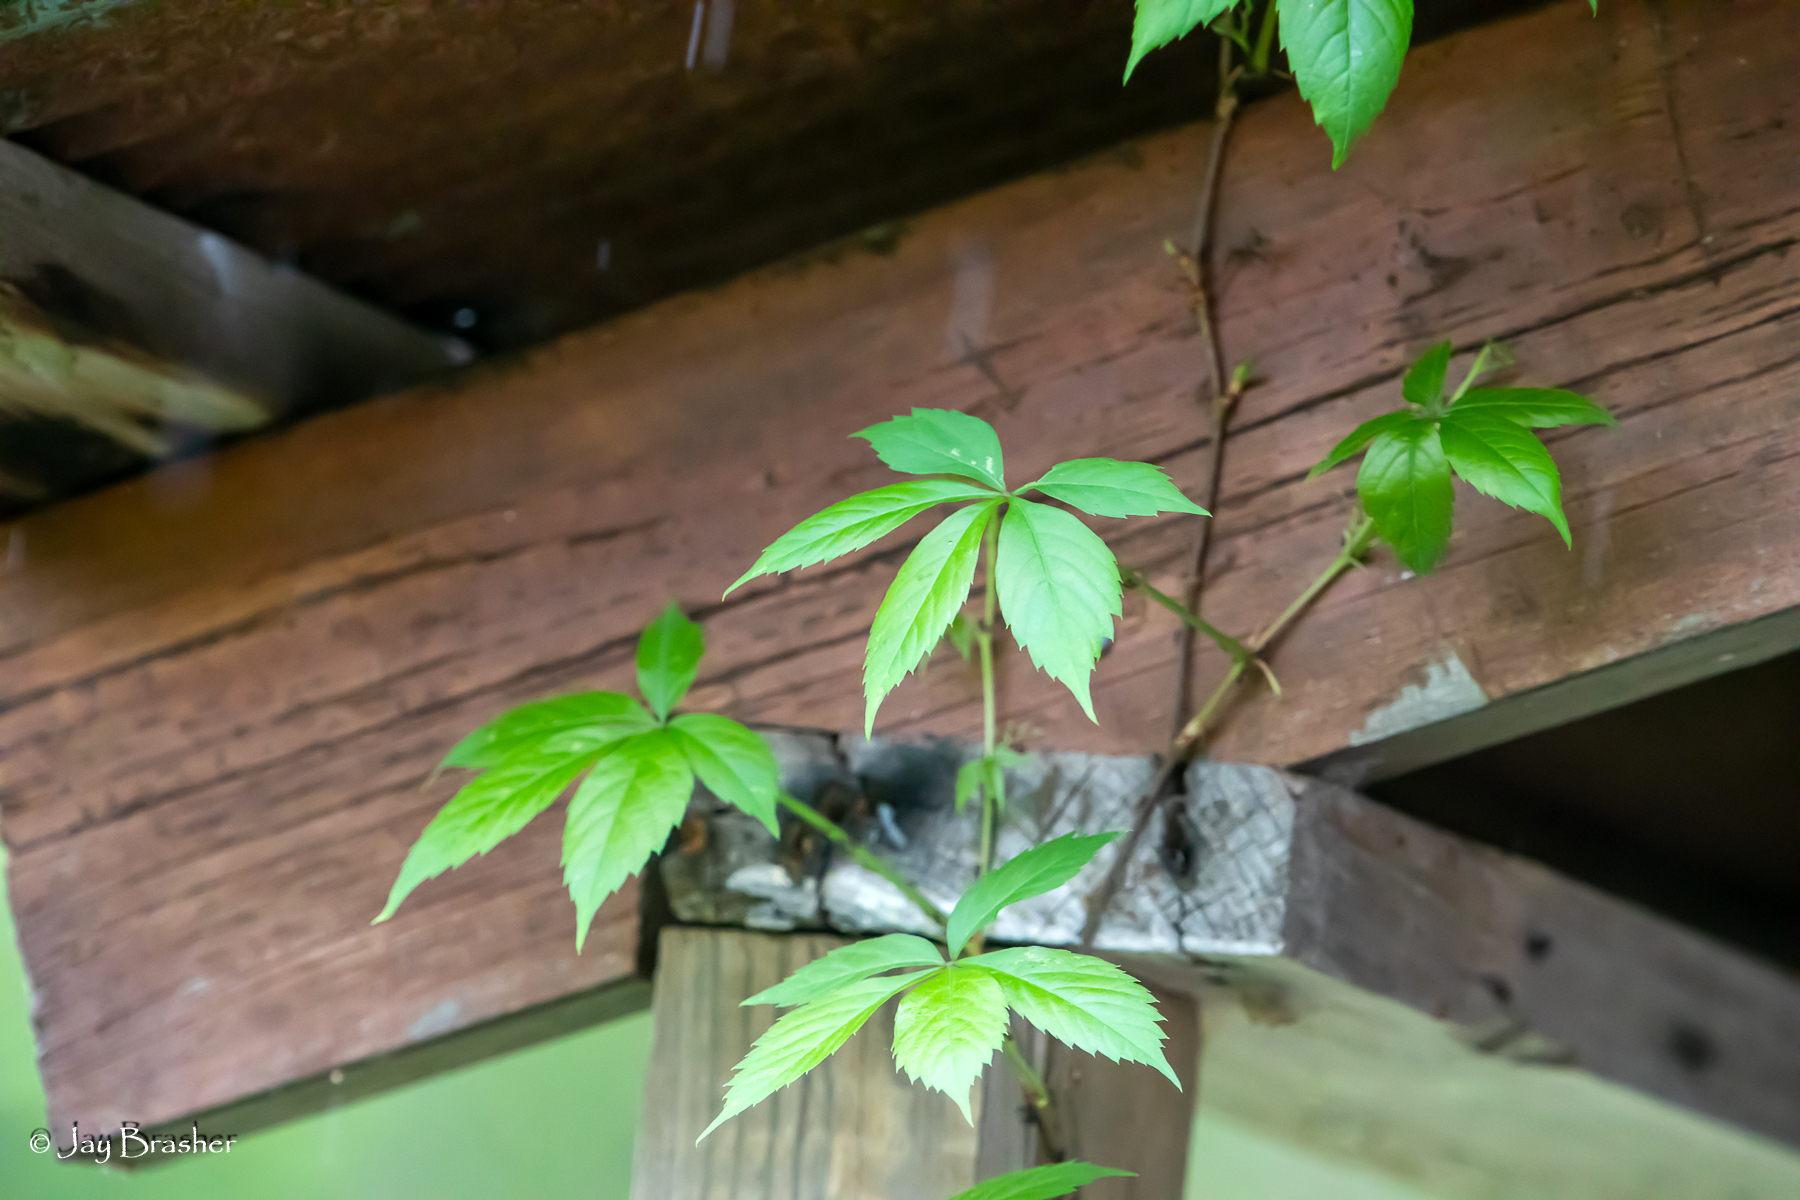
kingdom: Plantae
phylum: Tracheophyta
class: Magnoliopsida
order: Vitales
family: Vitaceae
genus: Parthenocissus
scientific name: Parthenocissus quinquefolia
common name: Virginia-creeper
